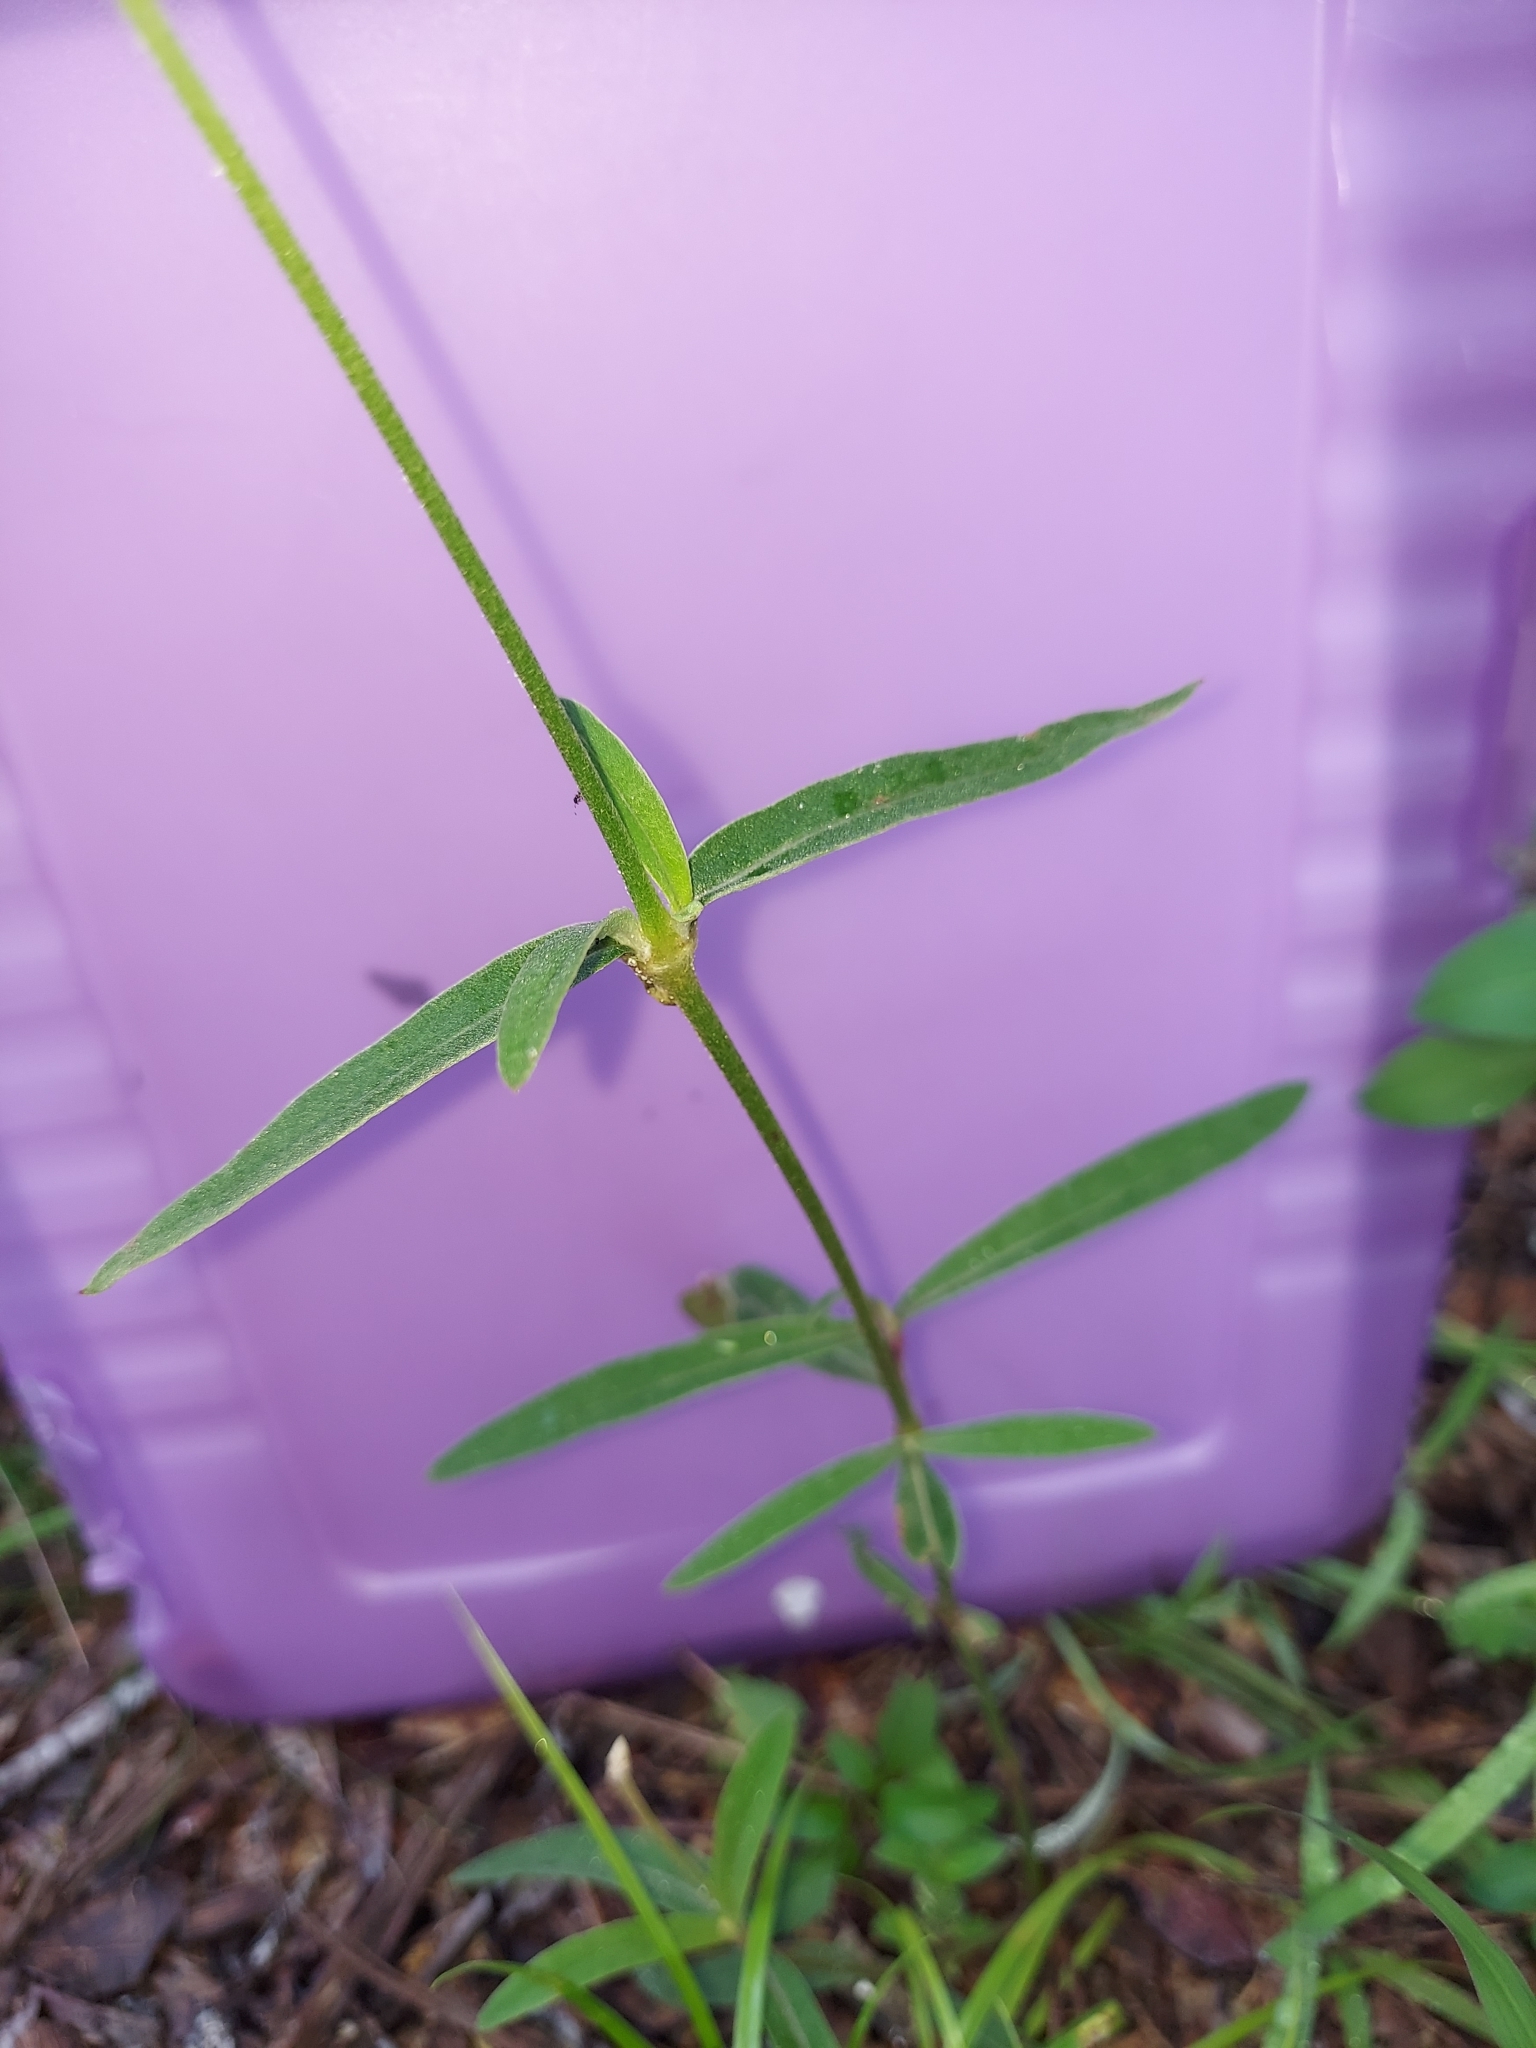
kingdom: Plantae
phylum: Tracheophyta
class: Magnoliopsida
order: Caryophyllales
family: Amaranthaceae
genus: Froelichia
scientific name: Froelichia floridana
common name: Florida snake-cotton
